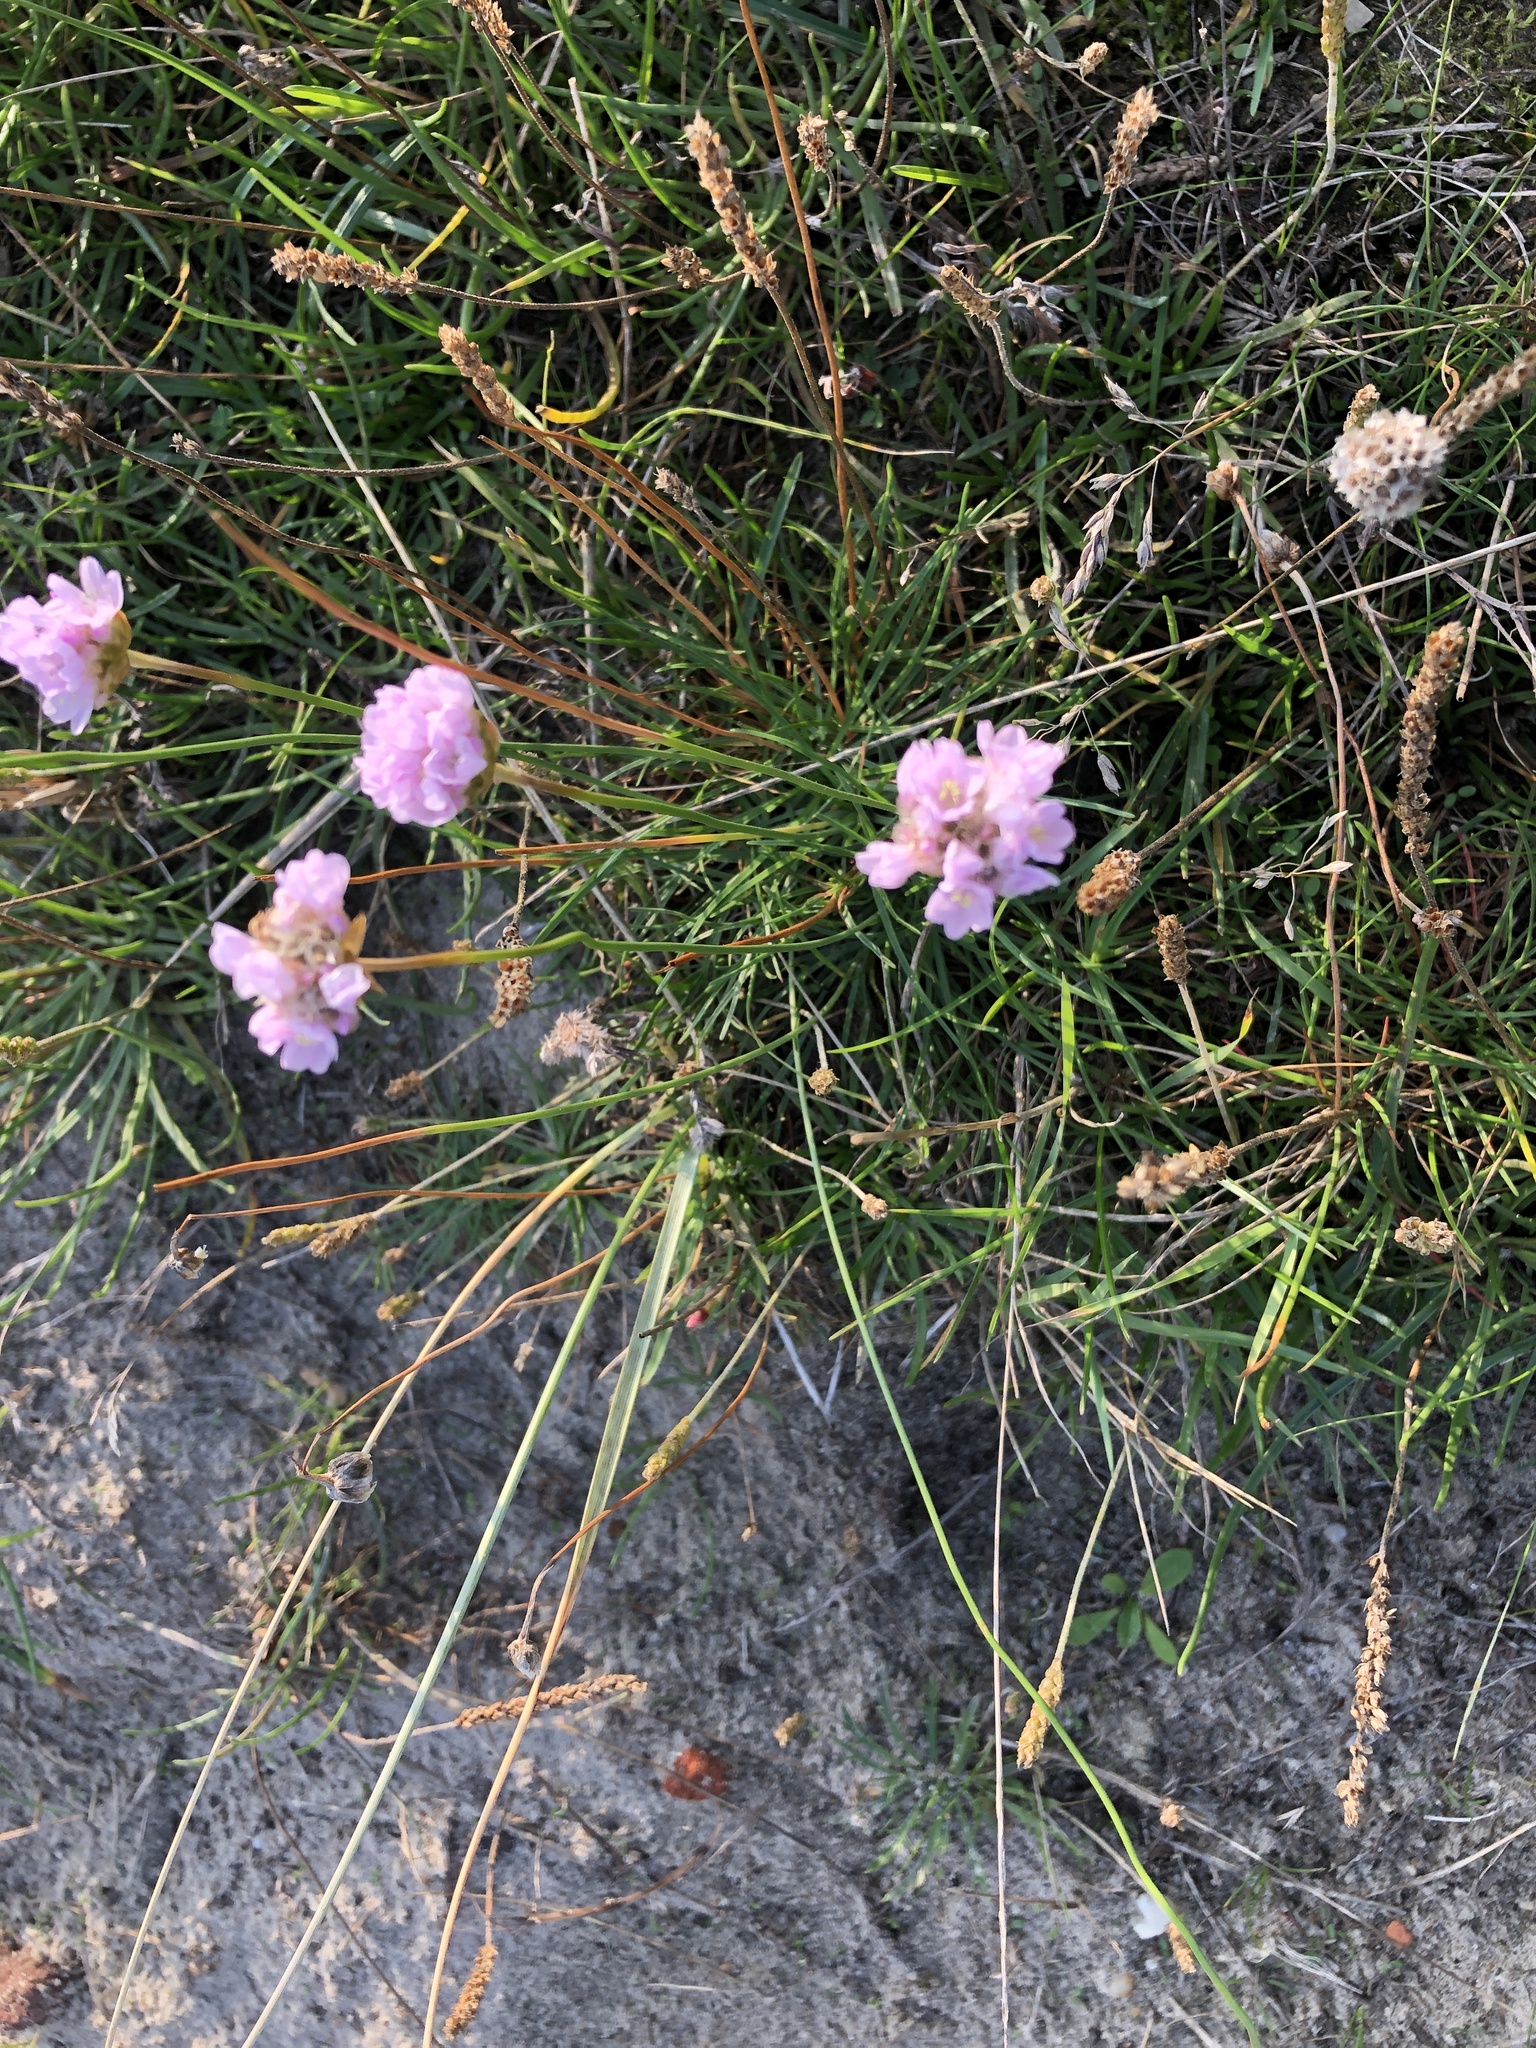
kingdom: Plantae
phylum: Tracheophyta
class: Magnoliopsida
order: Caryophyllales
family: Plumbaginaceae
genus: Armeria
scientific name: Armeria maritima
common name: Thrift
